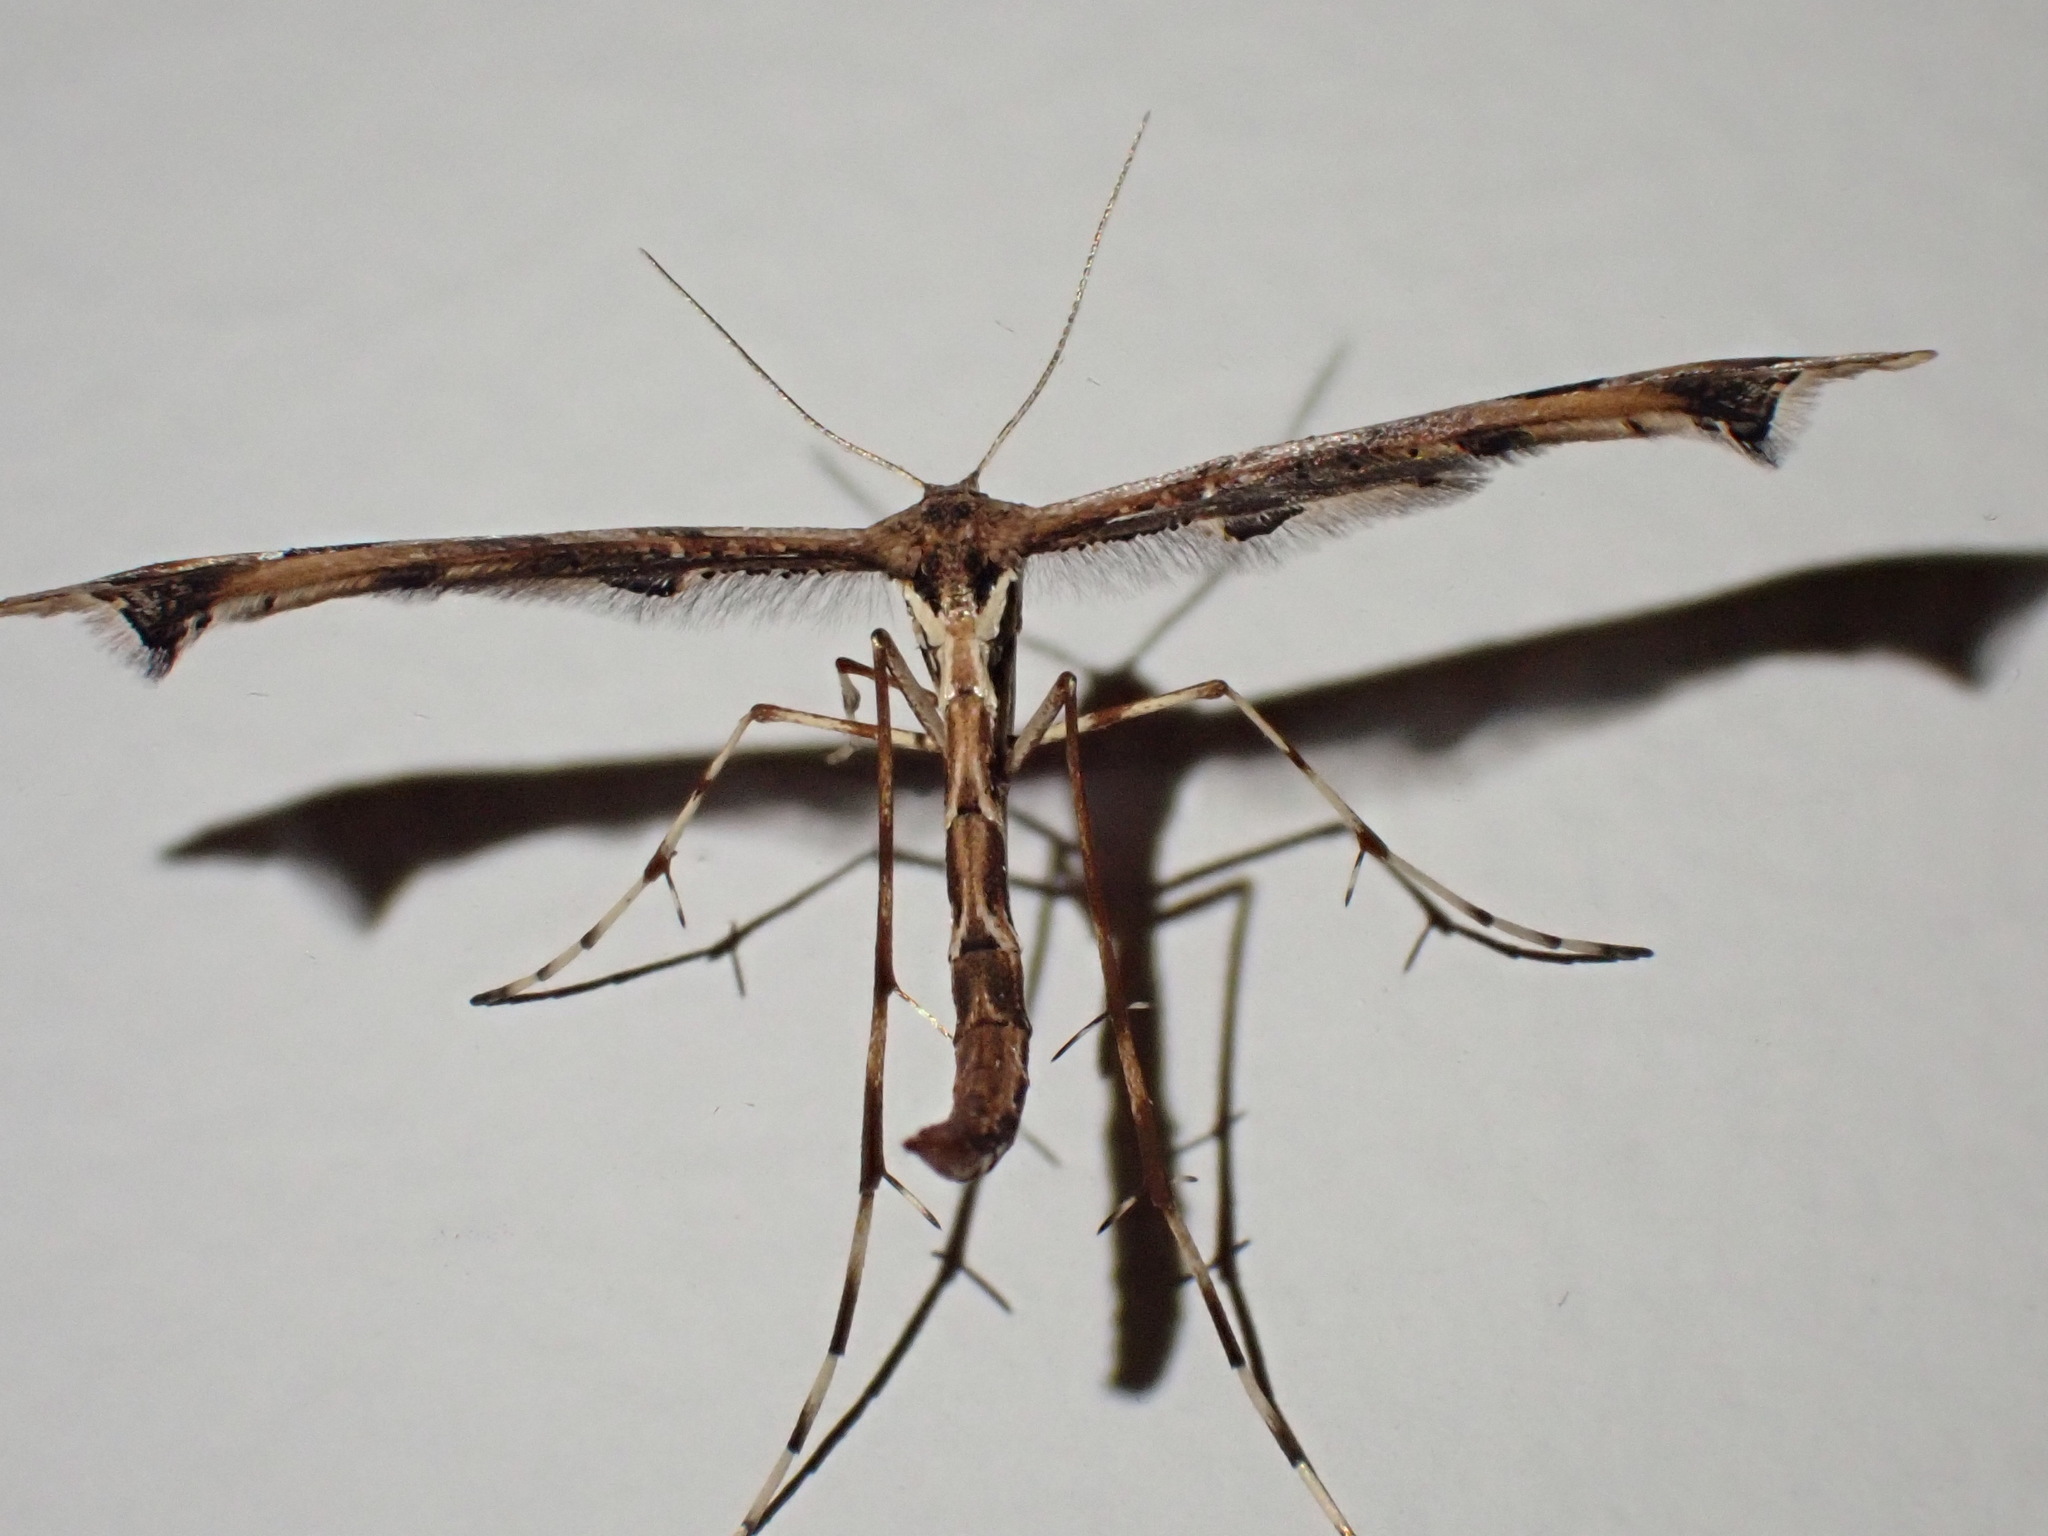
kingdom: Animalia
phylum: Arthropoda
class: Insecta
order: Lepidoptera
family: Pterophoridae
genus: Amblyptilia
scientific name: Amblyptilia acanthadactyla
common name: Beautiful plume
